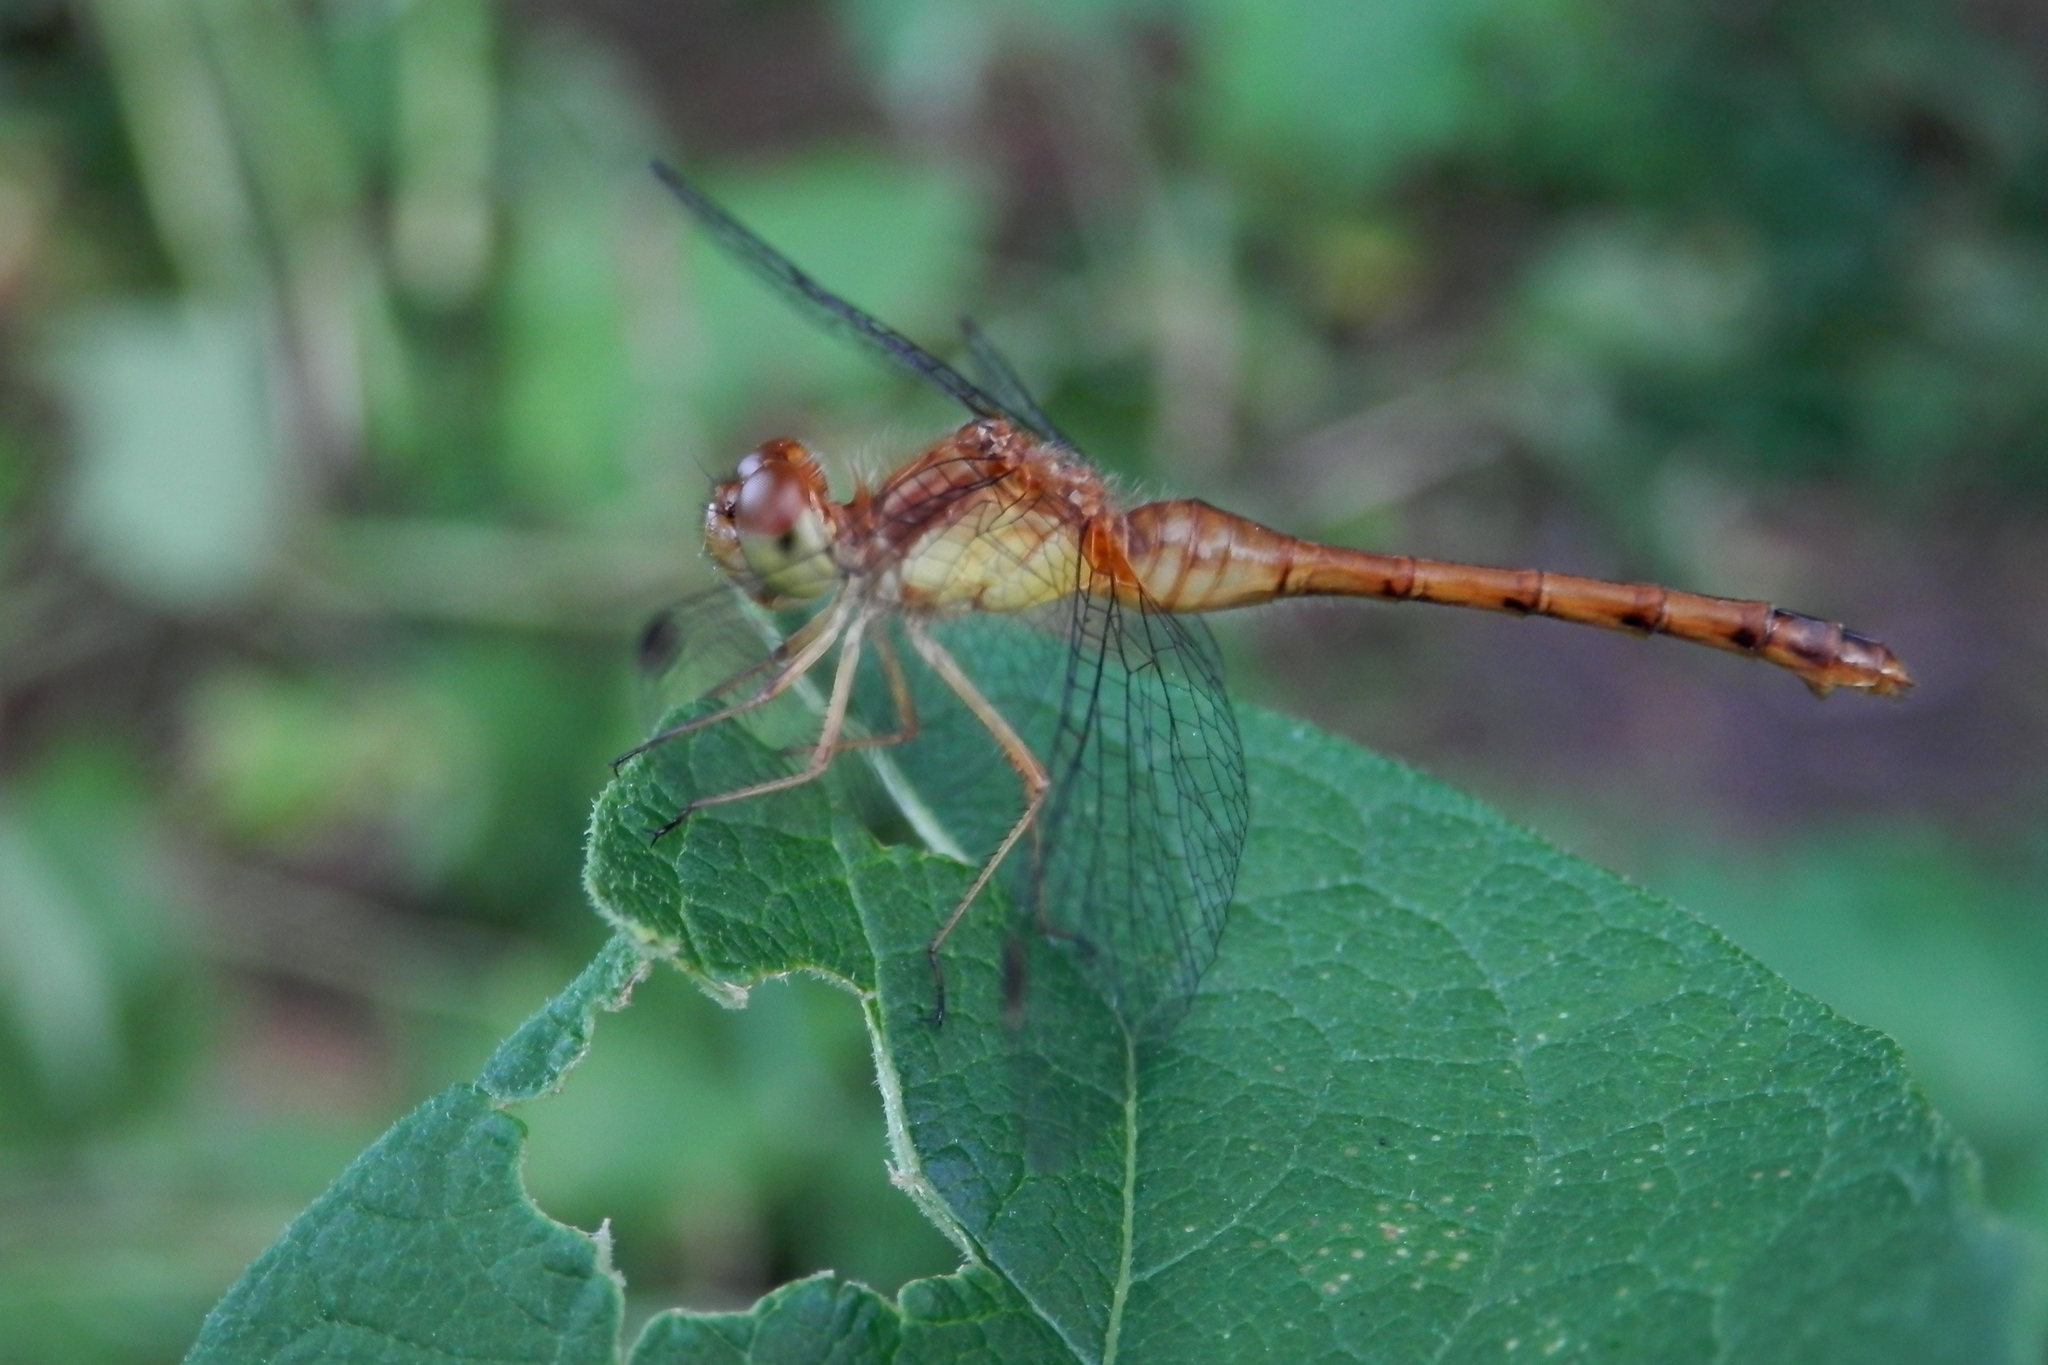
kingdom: Animalia
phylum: Arthropoda
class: Insecta
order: Odonata
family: Libellulidae
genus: Sympetrum
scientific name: Sympetrum vicinum
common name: Autumn meadowhawk
